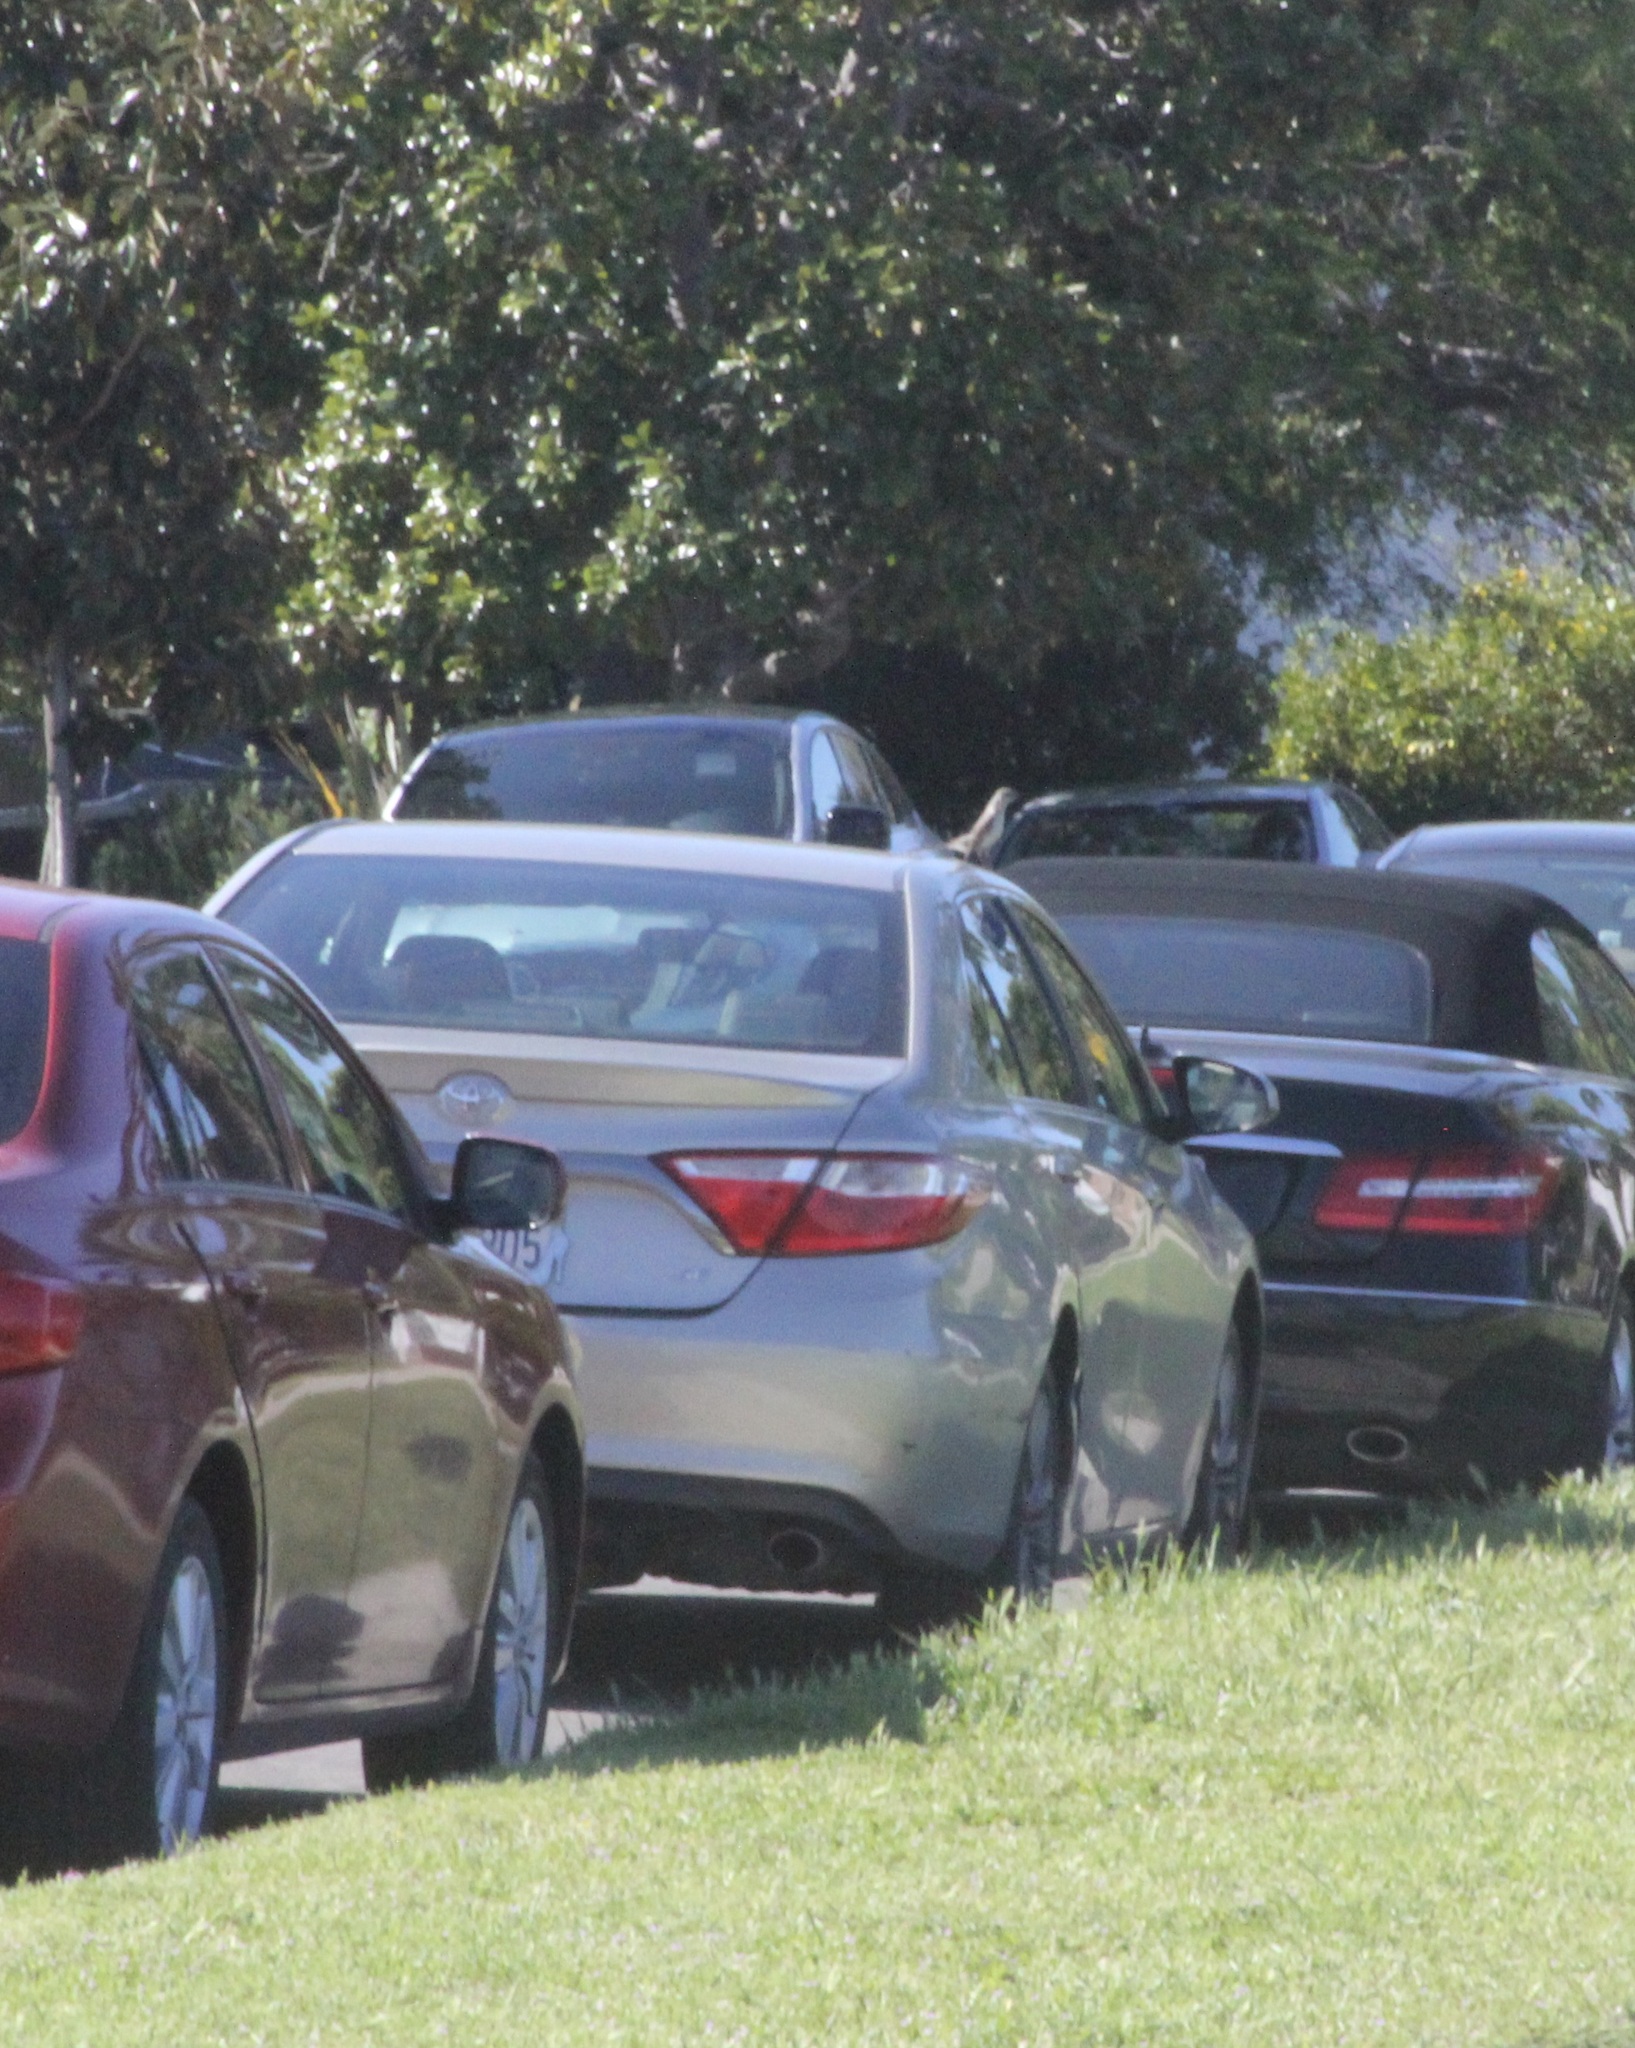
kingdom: Animalia
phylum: Chordata
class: Aves
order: Passeriformes
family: Mimidae
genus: Mimus
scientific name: Mimus polyglottos
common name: Northern mockingbird
